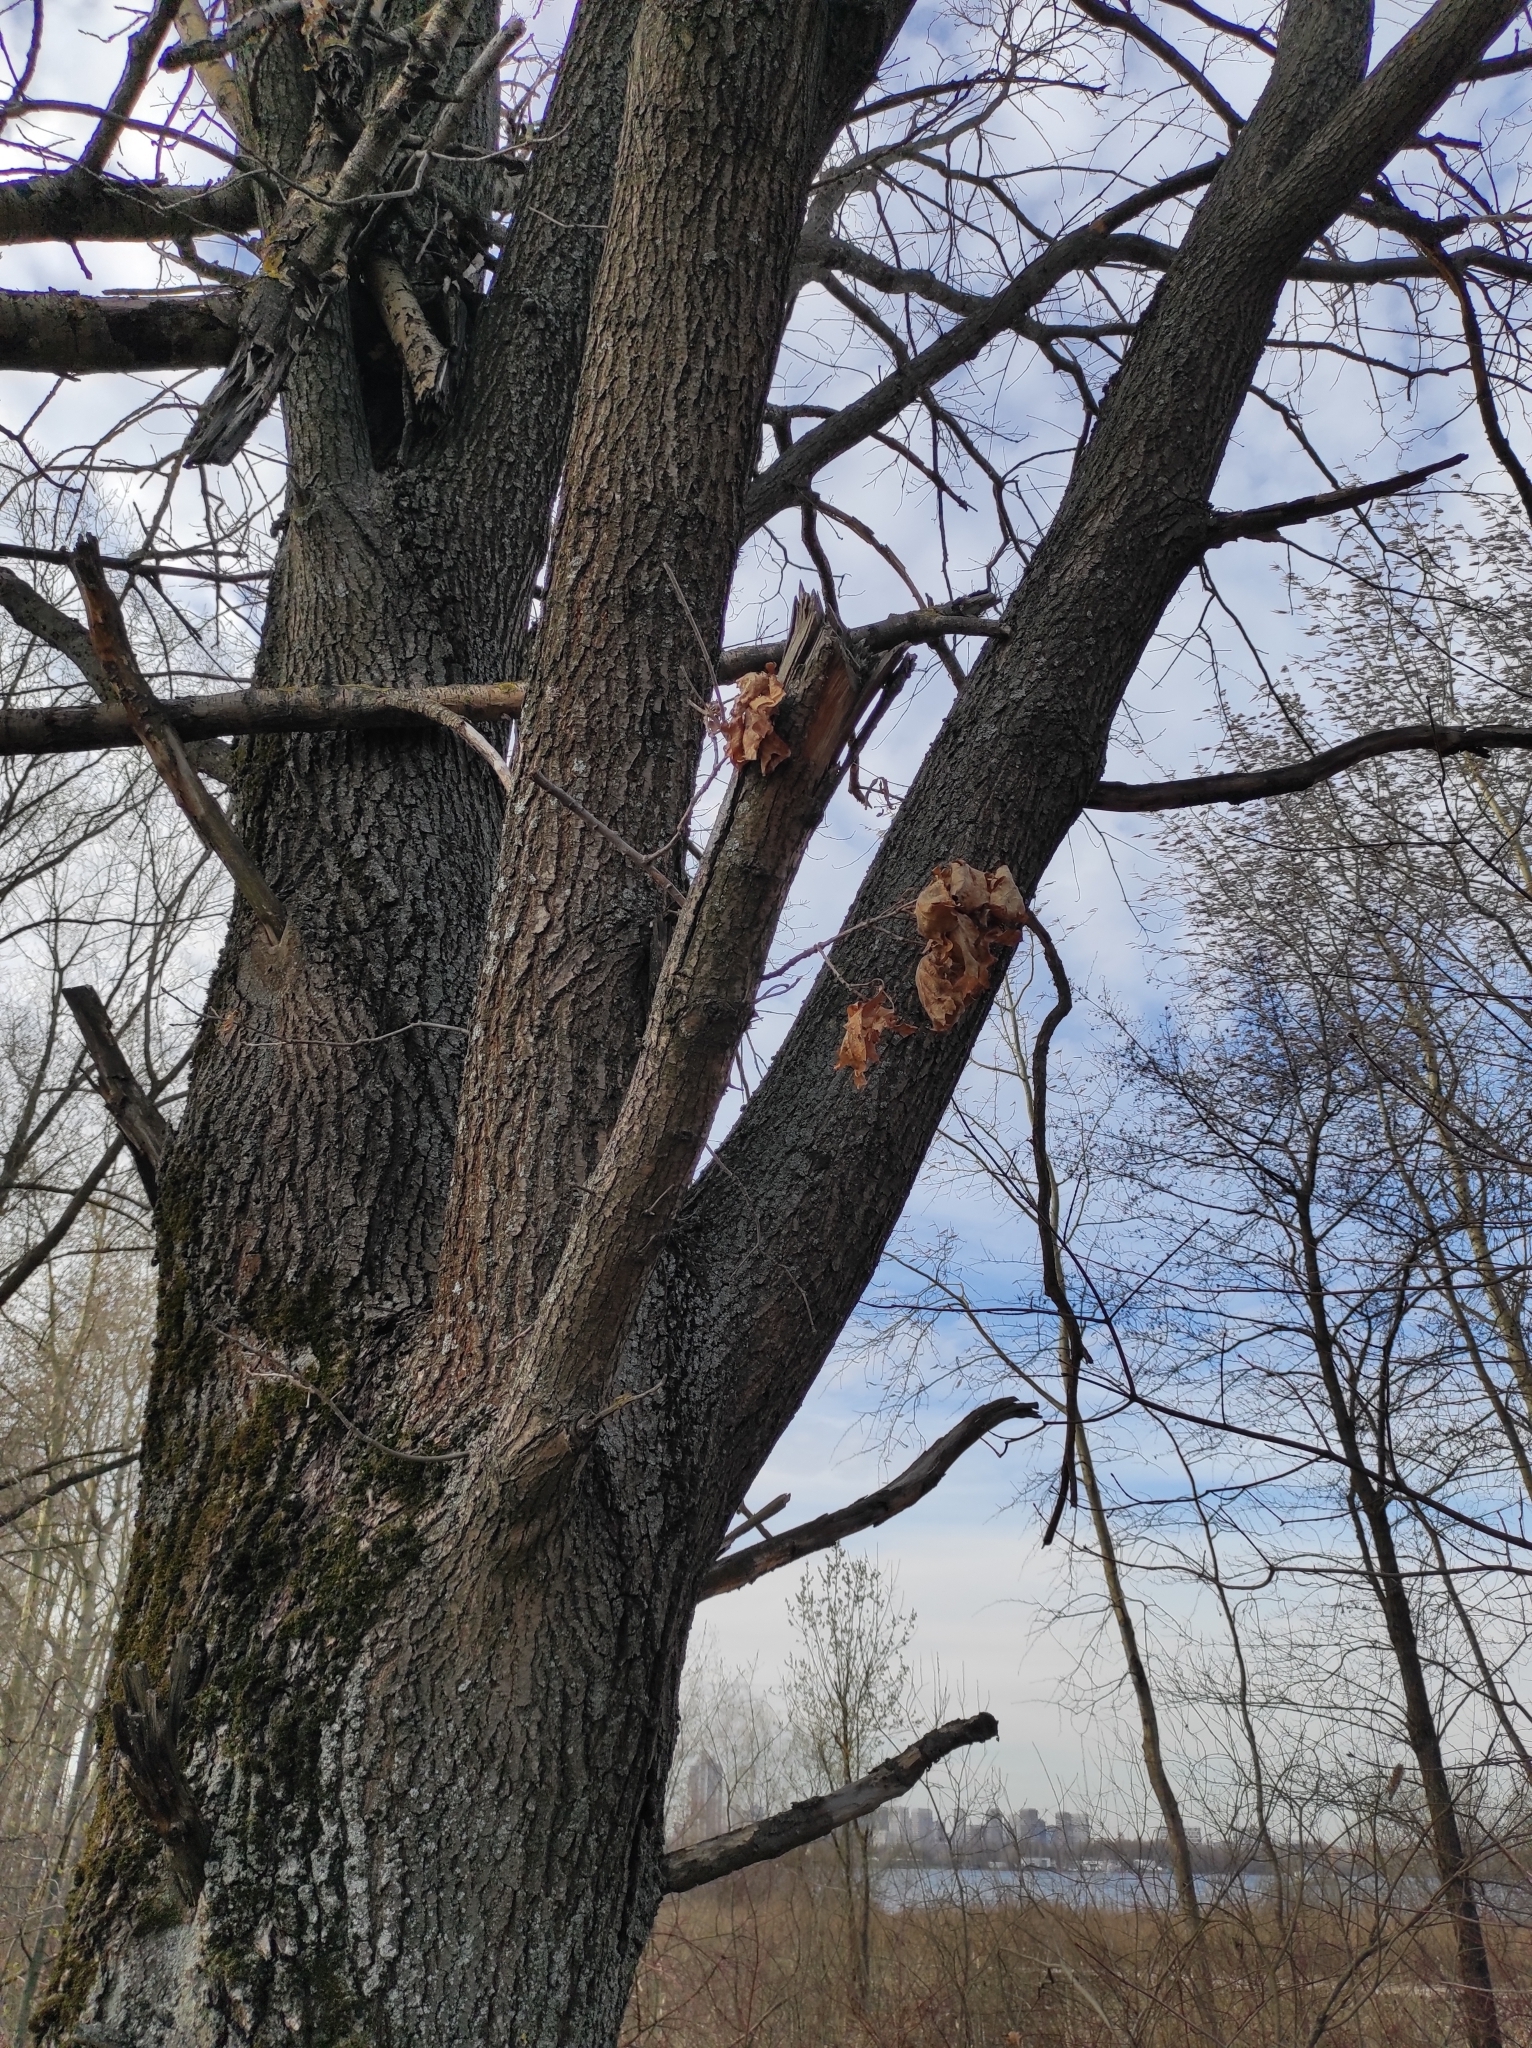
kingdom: Plantae
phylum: Tracheophyta
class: Magnoliopsida
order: Fagales
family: Fagaceae
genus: Quercus
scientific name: Quercus robur
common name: Pedunculate oak
